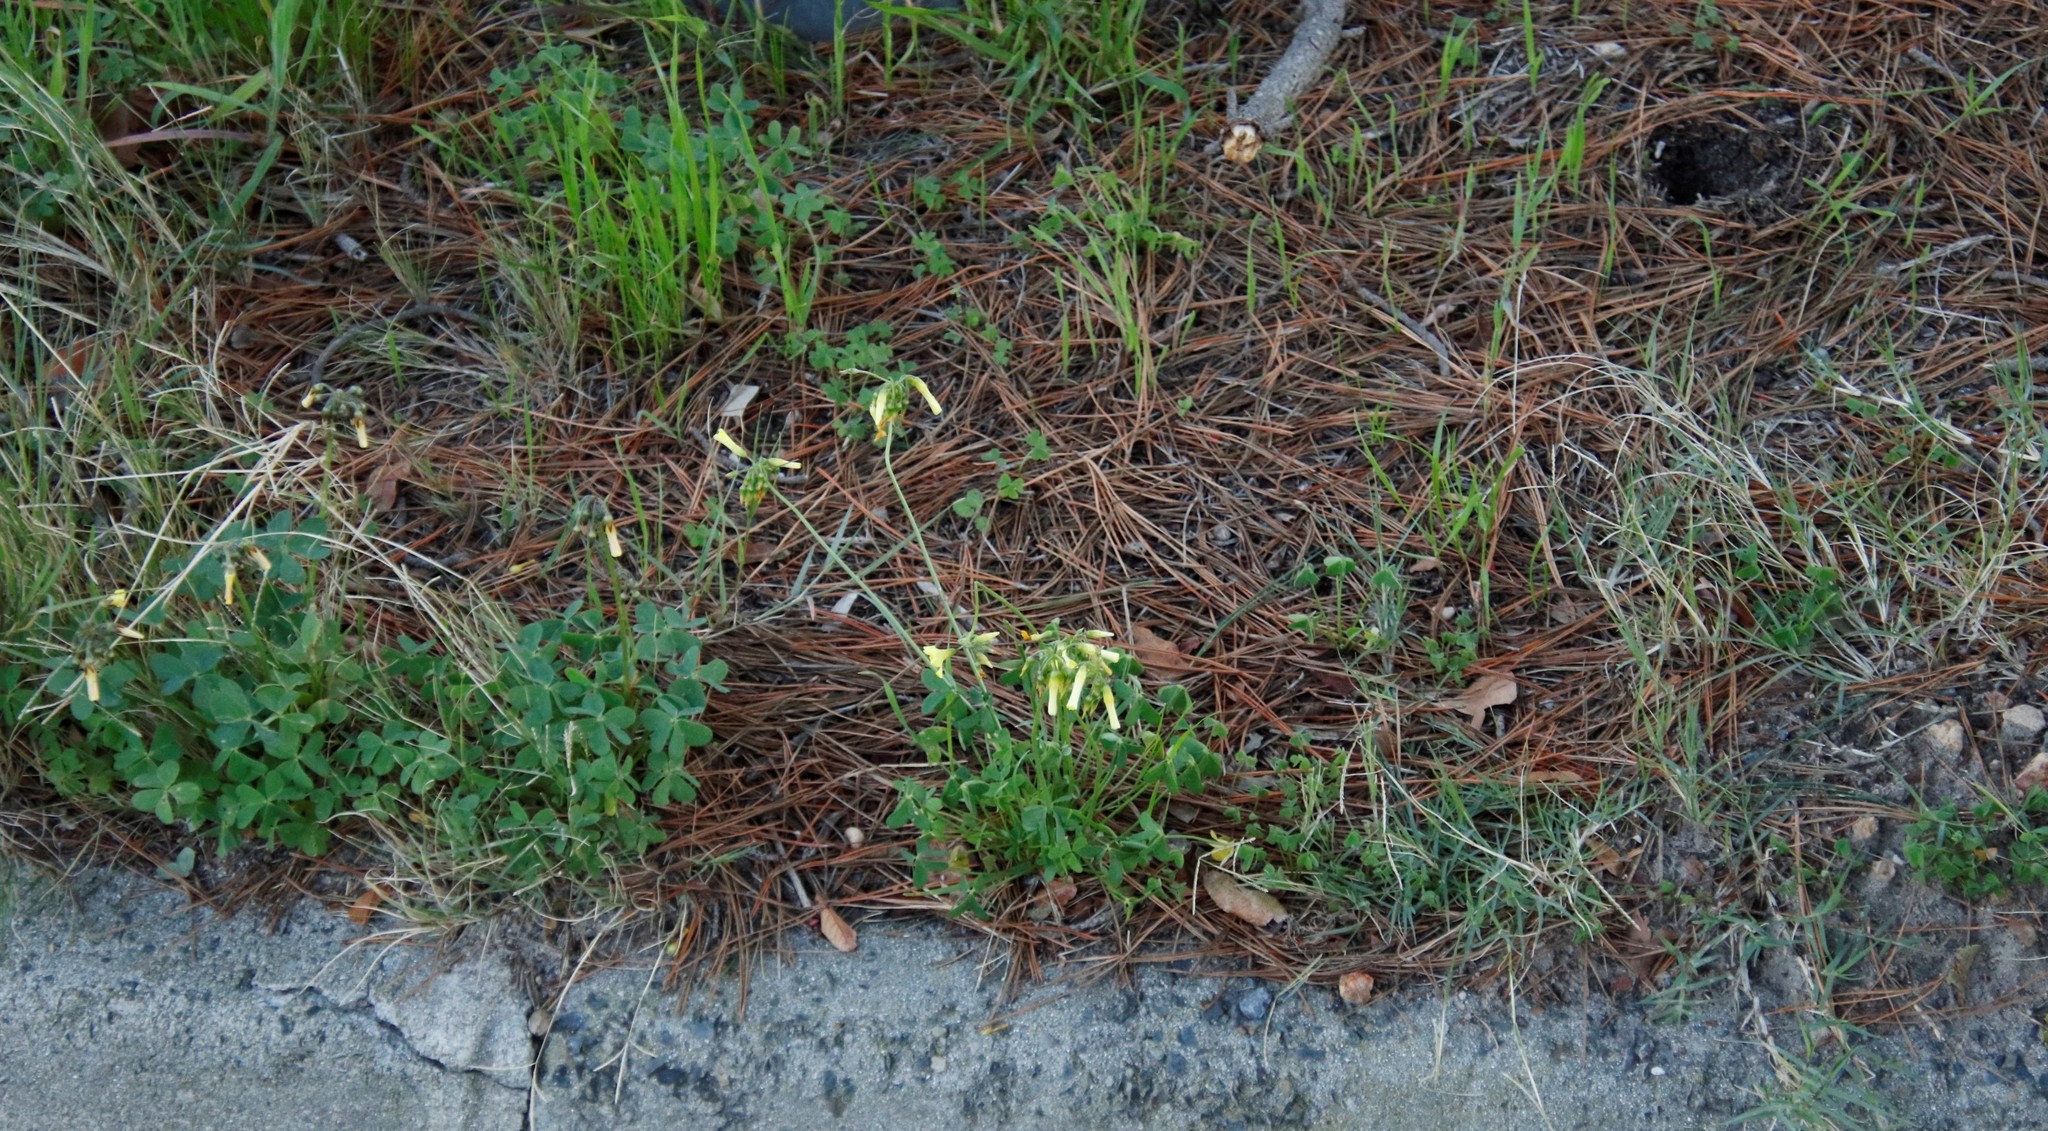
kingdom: Plantae
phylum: Tracheophyta
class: Magnoliopsida
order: Oxalidales
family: Oxalidaceae
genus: Oxalis
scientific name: Oxalis pes-caprae
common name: Bermuda-buttercup
